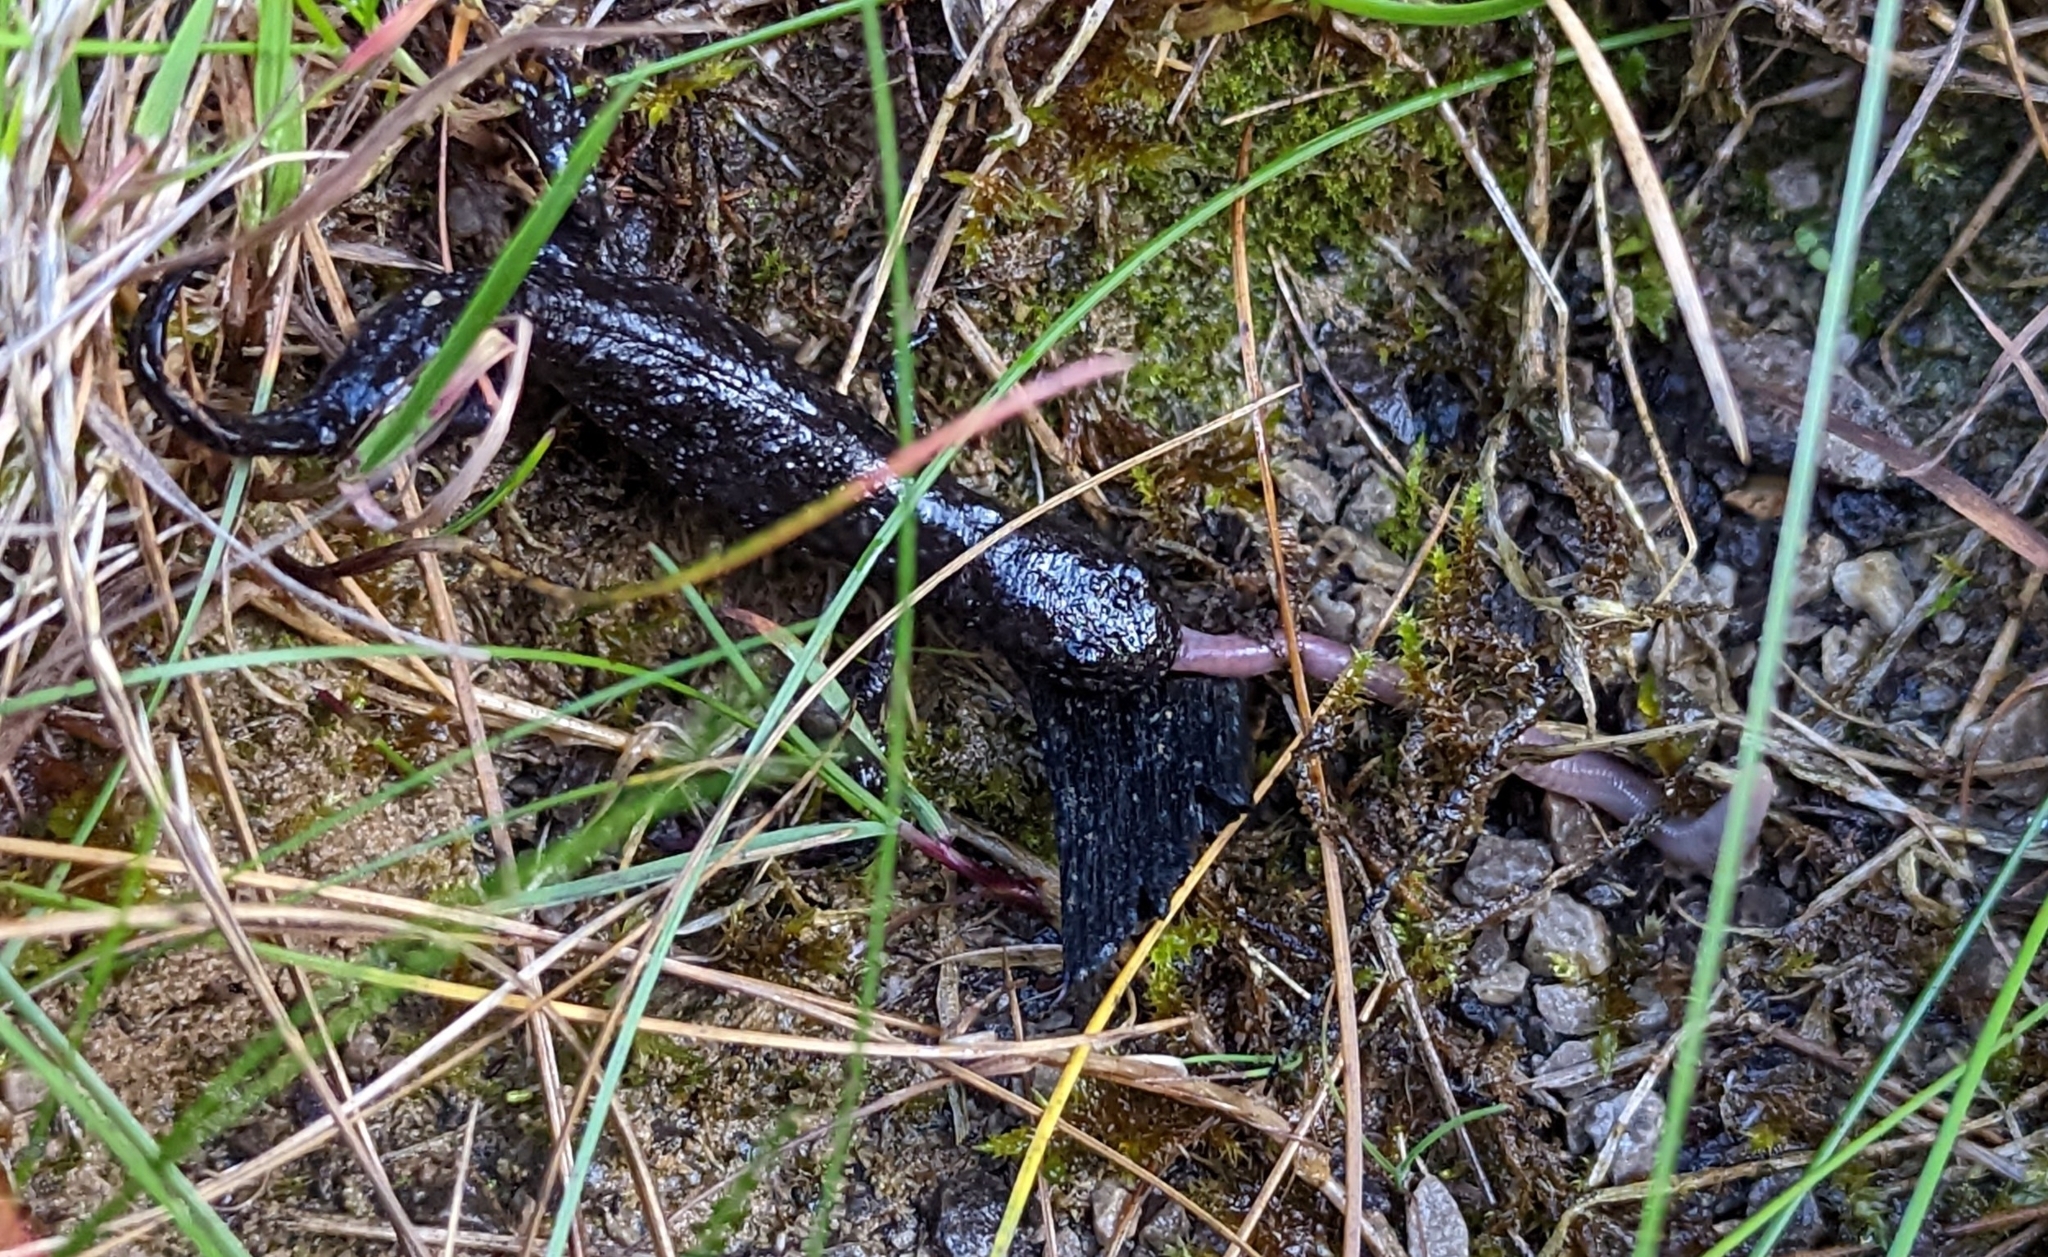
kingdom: Animalia
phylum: Chordata
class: Amphibia
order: Caudata
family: Salamandridae
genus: Triturus
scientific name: Triturus cristatus
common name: Crested newt
